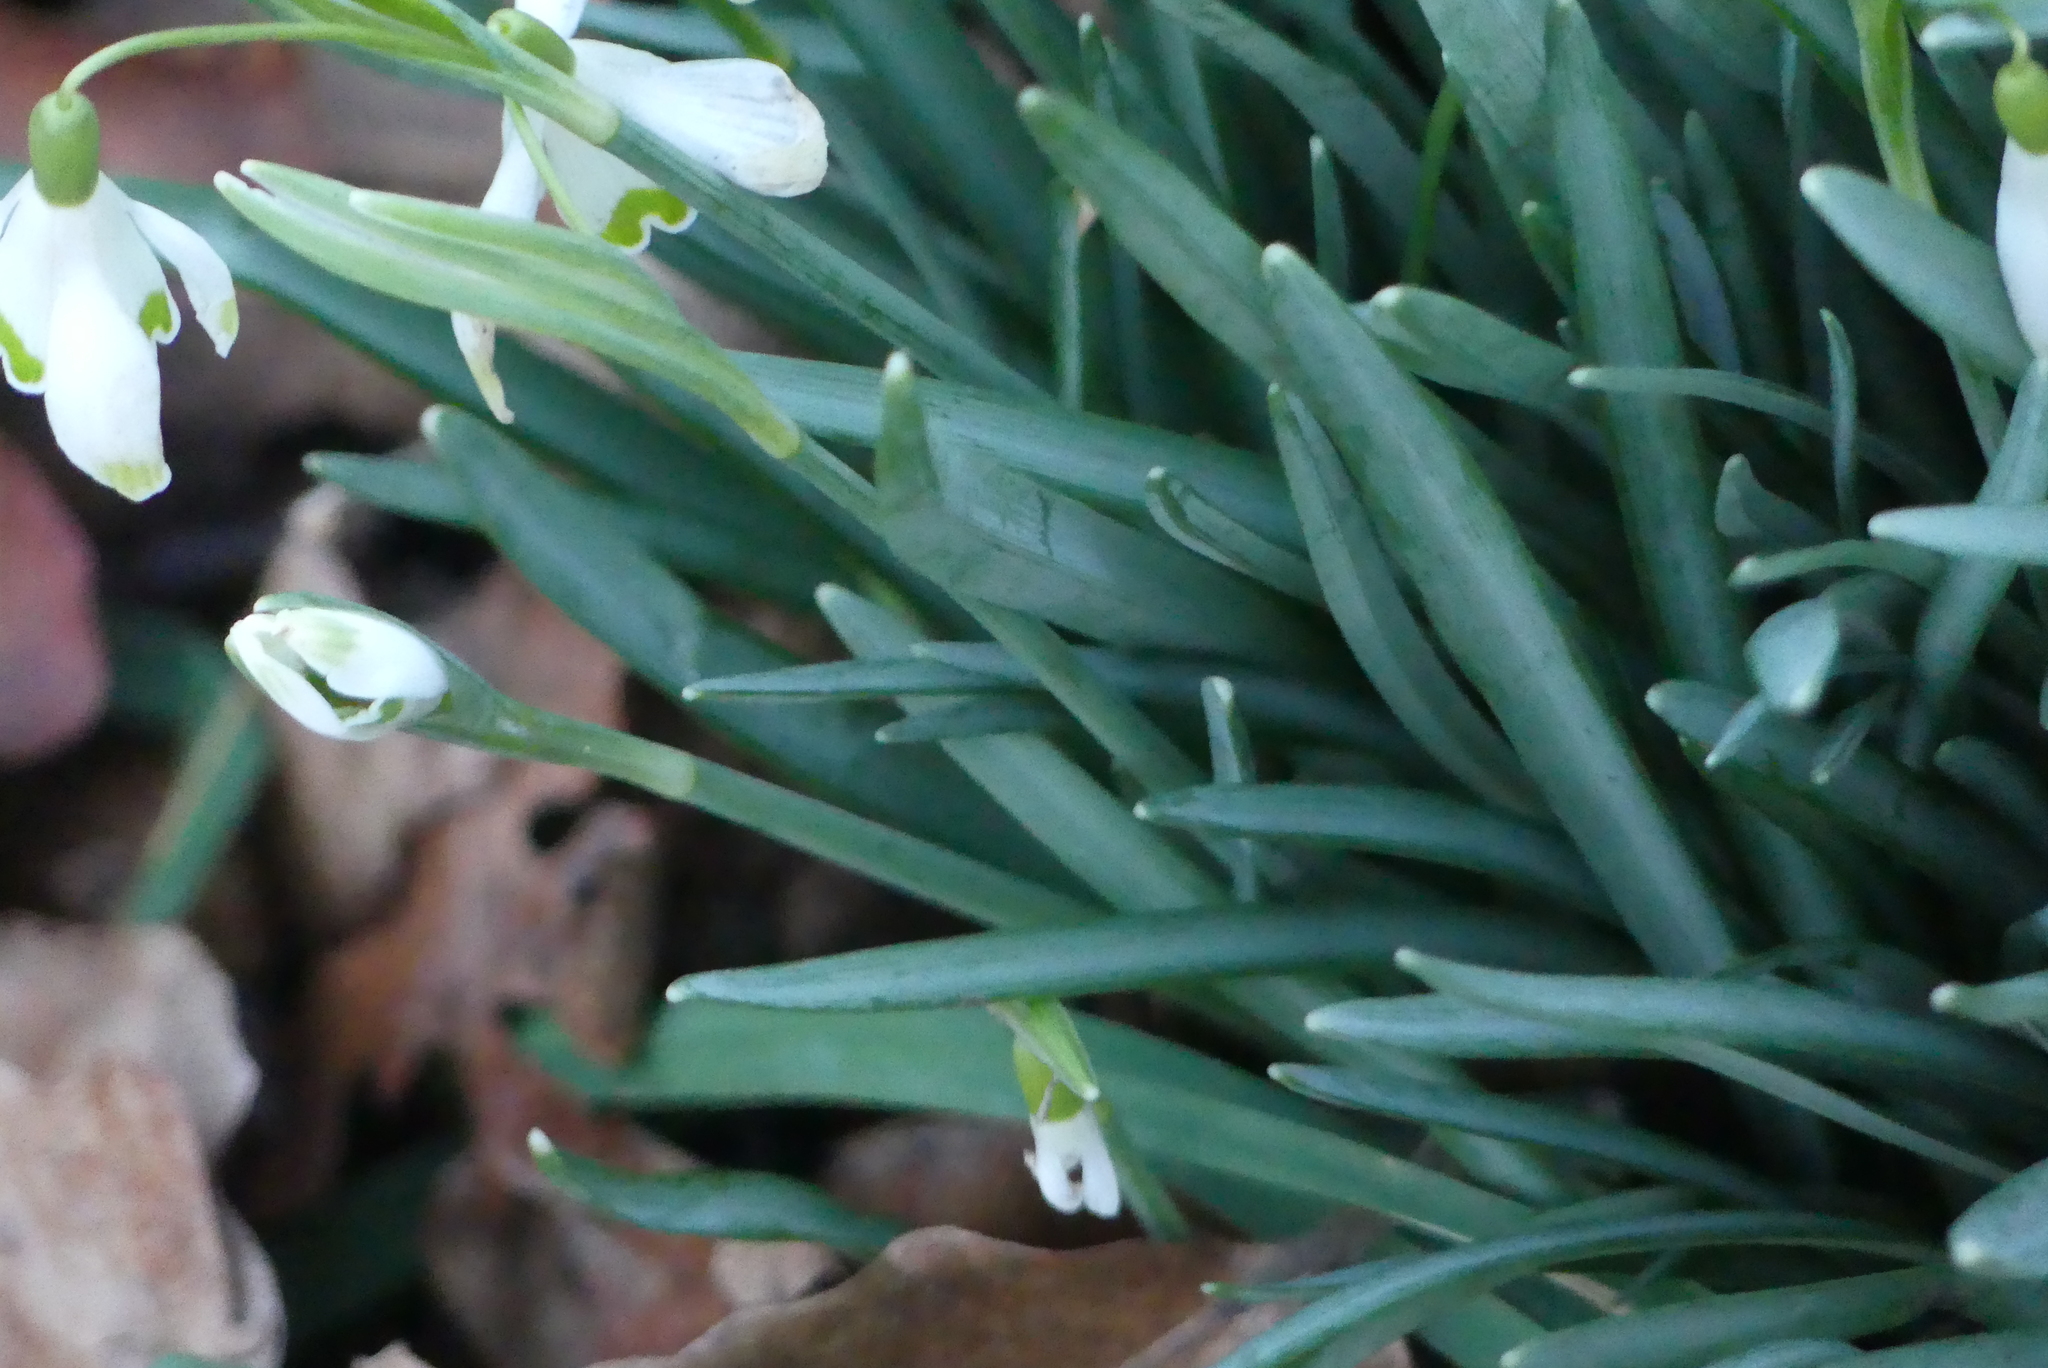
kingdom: Plantae
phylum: Tracheophyta
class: Liliopsida
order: Asparagales
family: Amaryllidaceae
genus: Galanthus
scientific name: Galanthus nivalis
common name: Snowdrop
